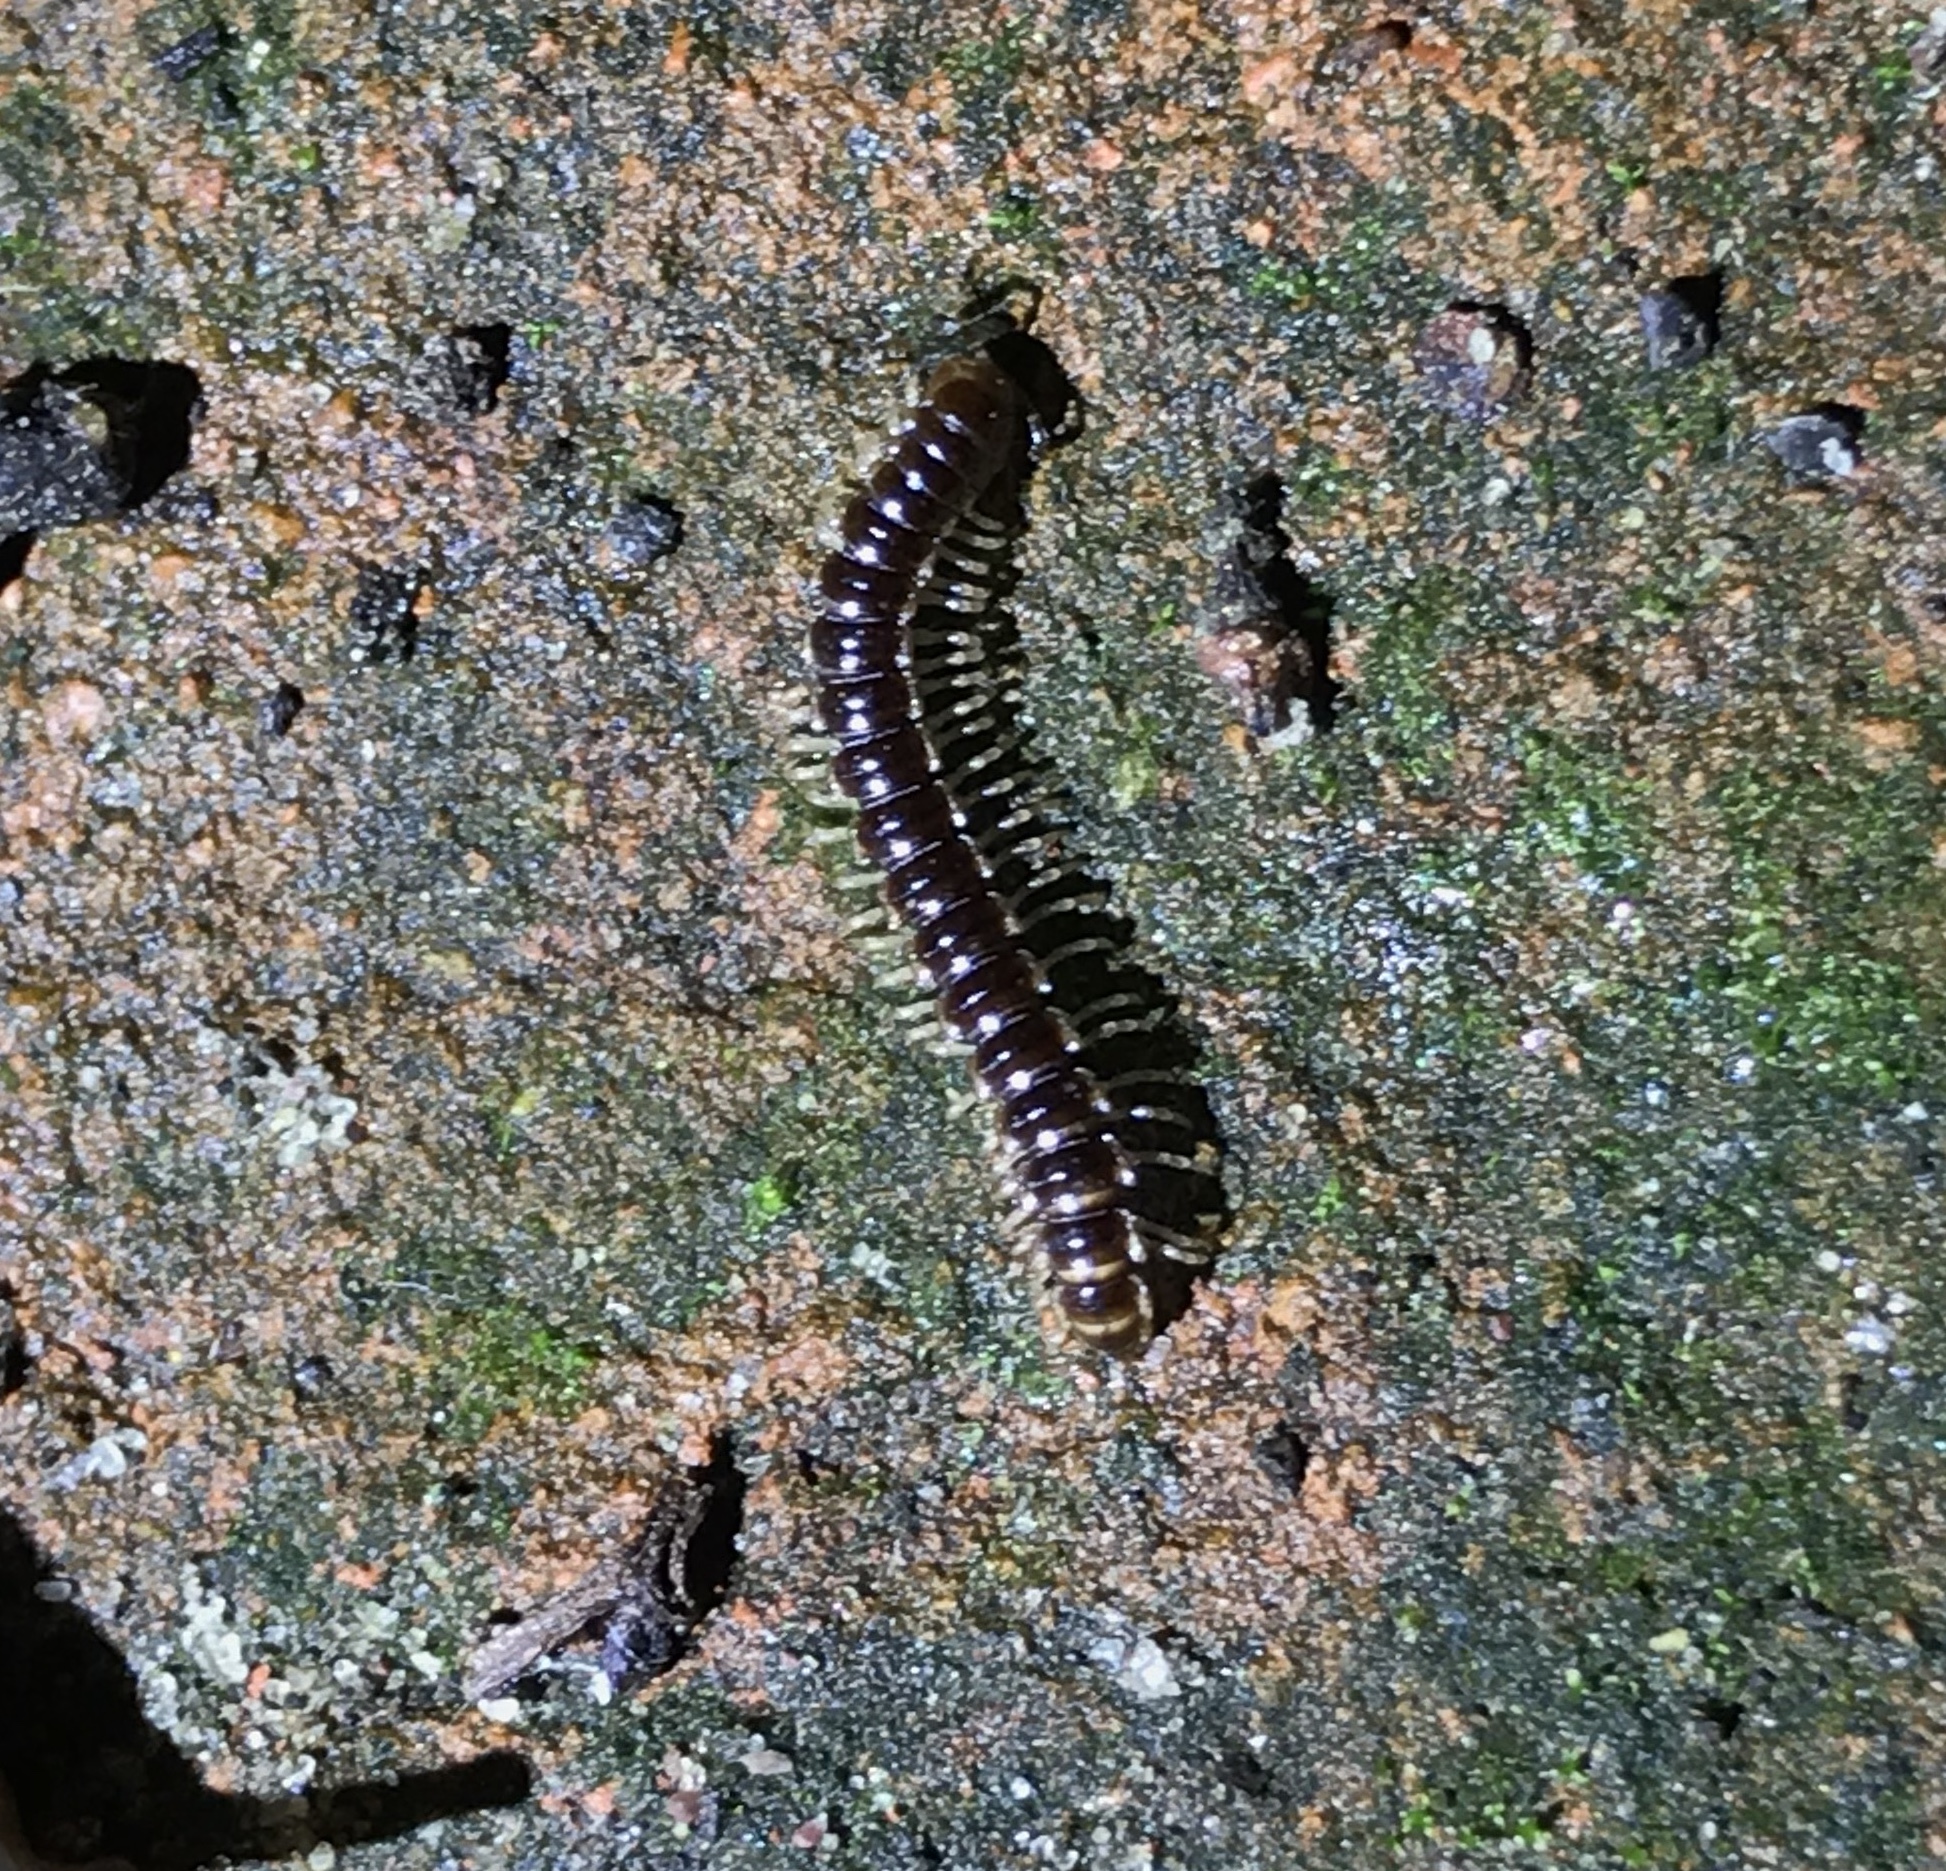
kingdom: Animalia
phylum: Arthropoda
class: Diplopoda
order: Polydesmida
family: Paradoxosomatidae
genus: Oxidus
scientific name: Oxidus gracilis
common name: Greenhouse millipede
